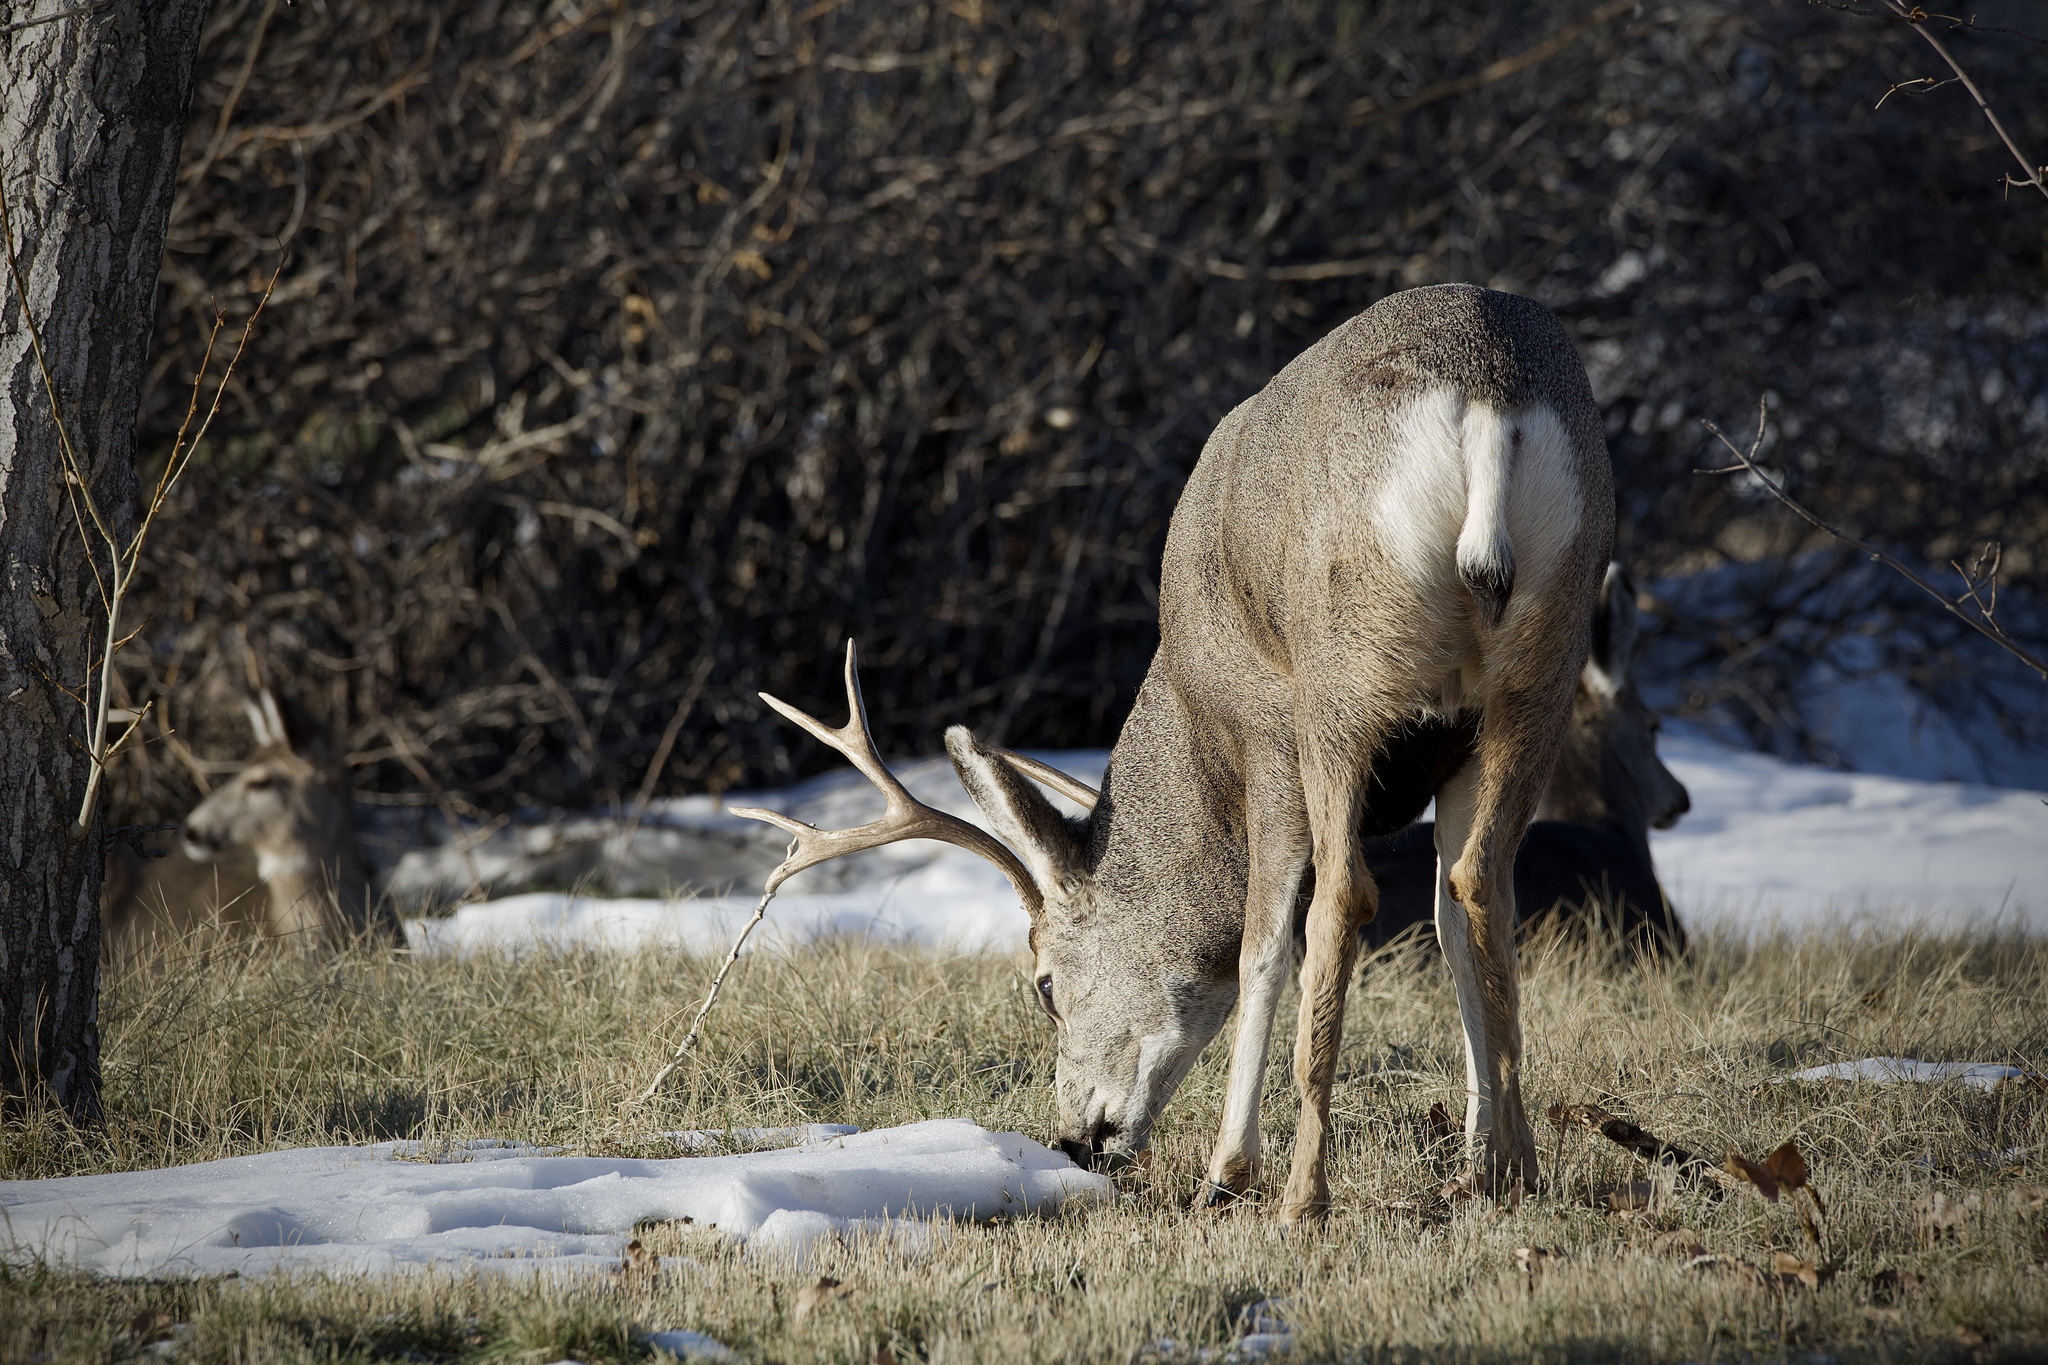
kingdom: Animalia
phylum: Chordata
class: Mammalia
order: Artiodactyla
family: Cervidae
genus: Odocoileus
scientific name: Odocoileus hemionus
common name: Mule deer
